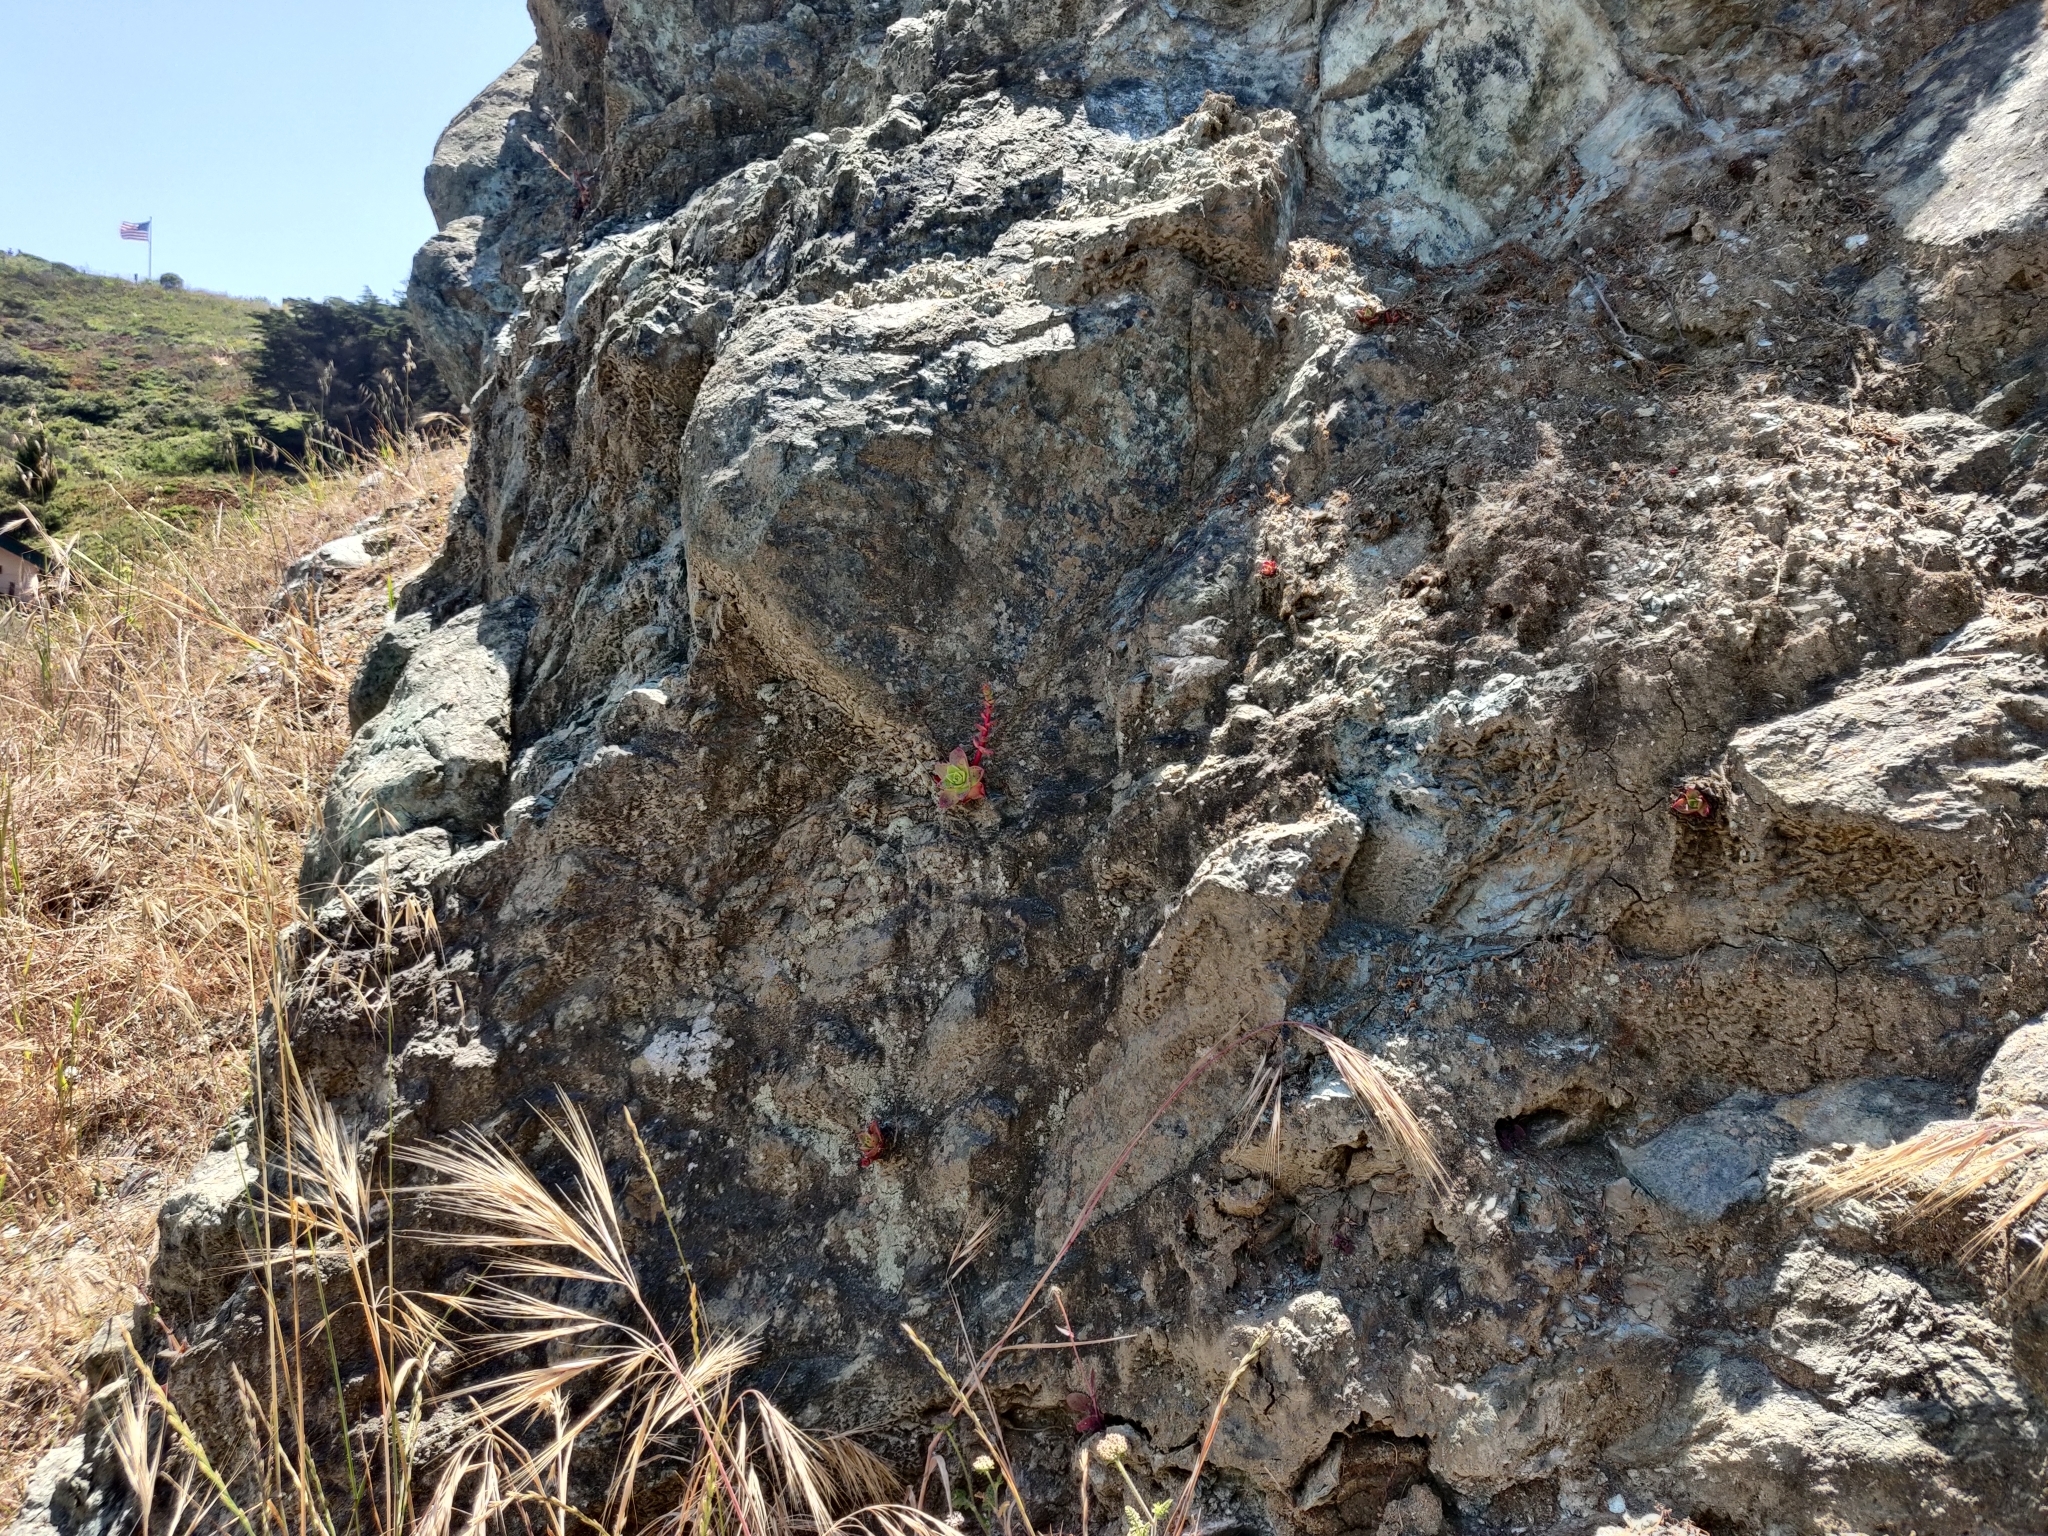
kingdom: Plantae
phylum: Tracheophyta
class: Magnoliopsida
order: Saxifragales
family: Crassulaceae
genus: Dudleya
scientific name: Dudleya farinosa
